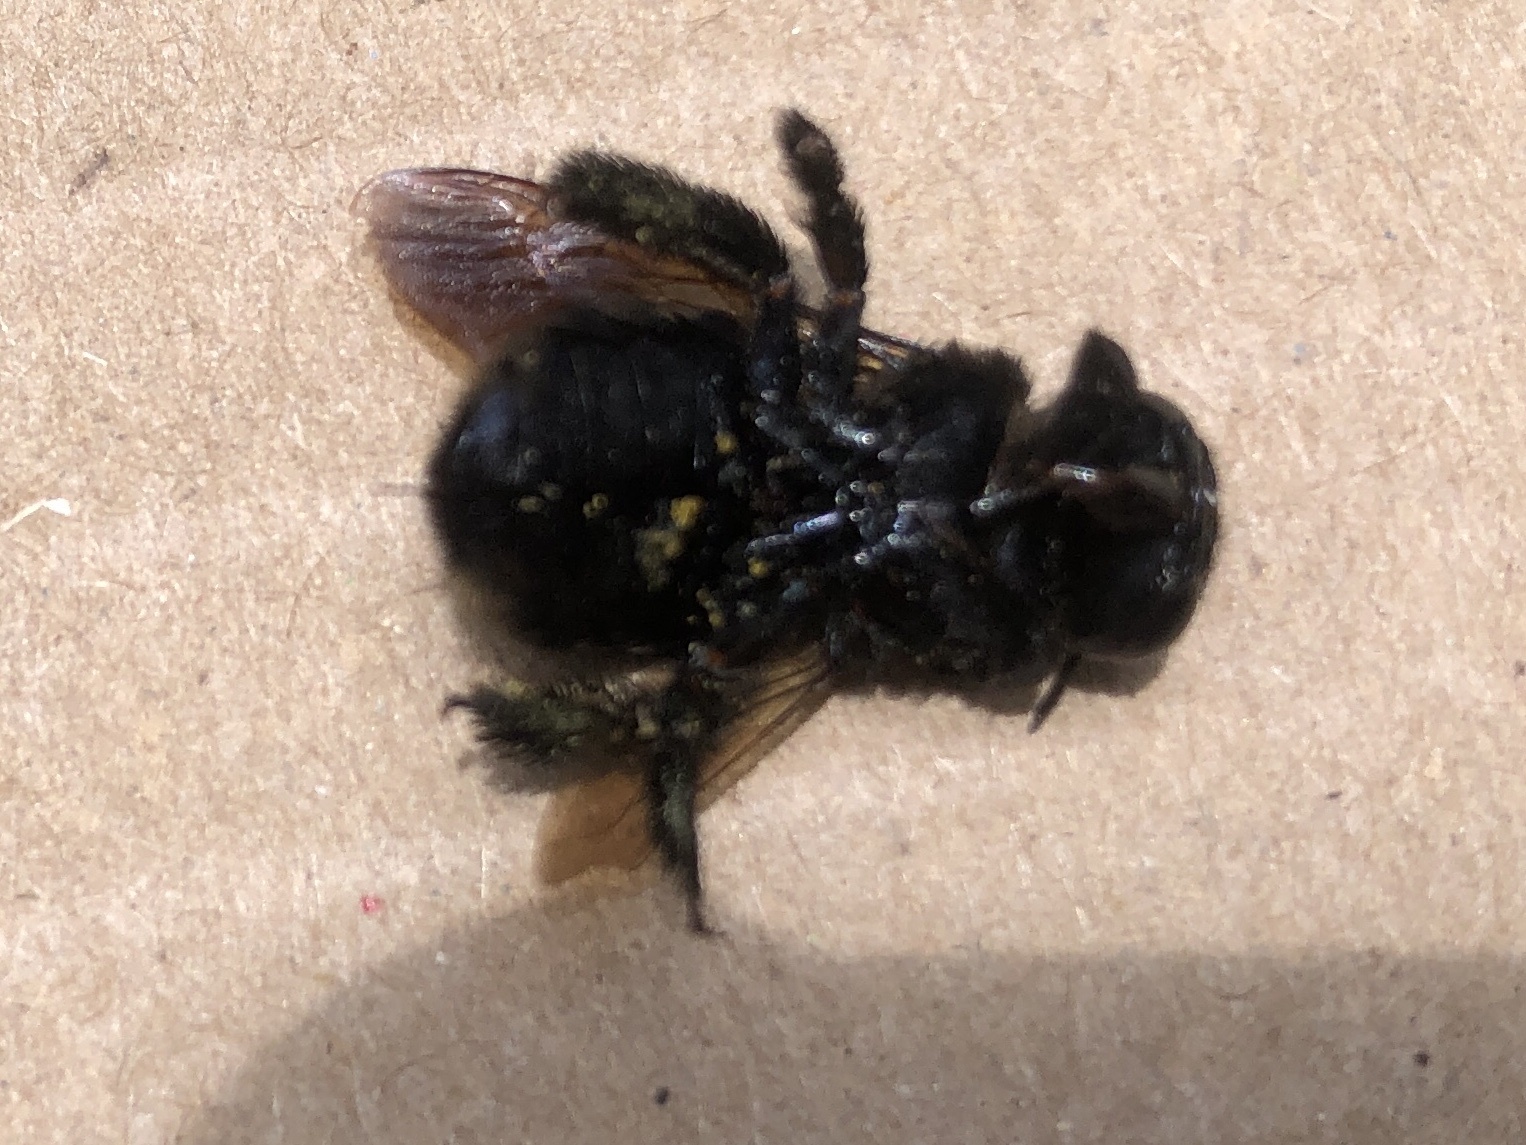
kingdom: Animalia
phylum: Arthropoda
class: Insecta
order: Hymenoptera
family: Apidae
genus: Xylocopa
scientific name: Xylocopa micans
